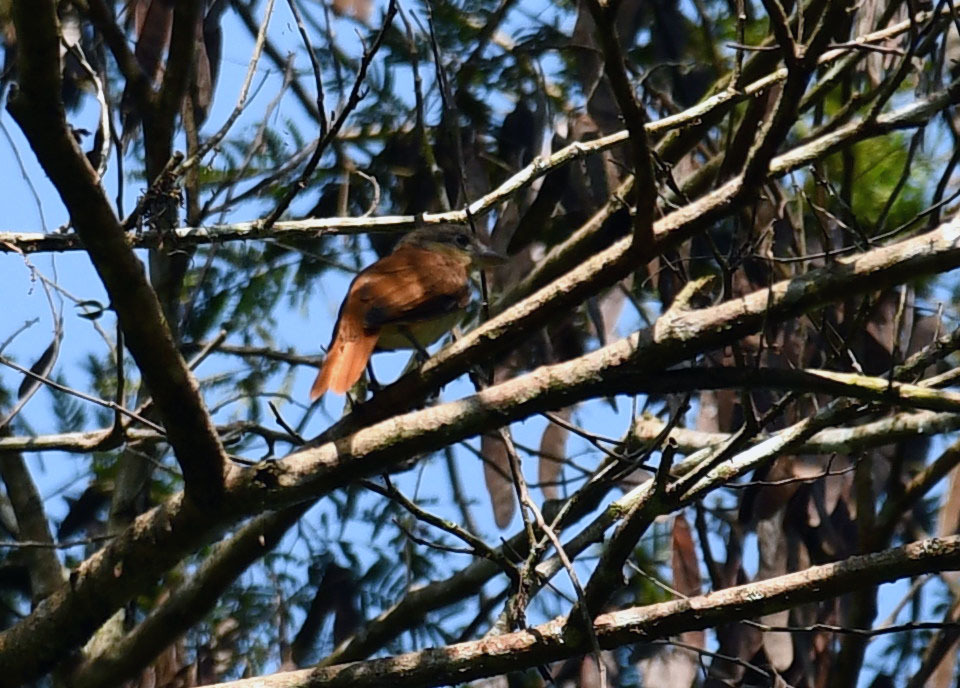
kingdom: Animalia
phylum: Chordata
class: Aves
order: Passeriformes
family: Cotingidae
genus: Pachyramphus
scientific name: Pachyramphus validus
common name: Crested becard
